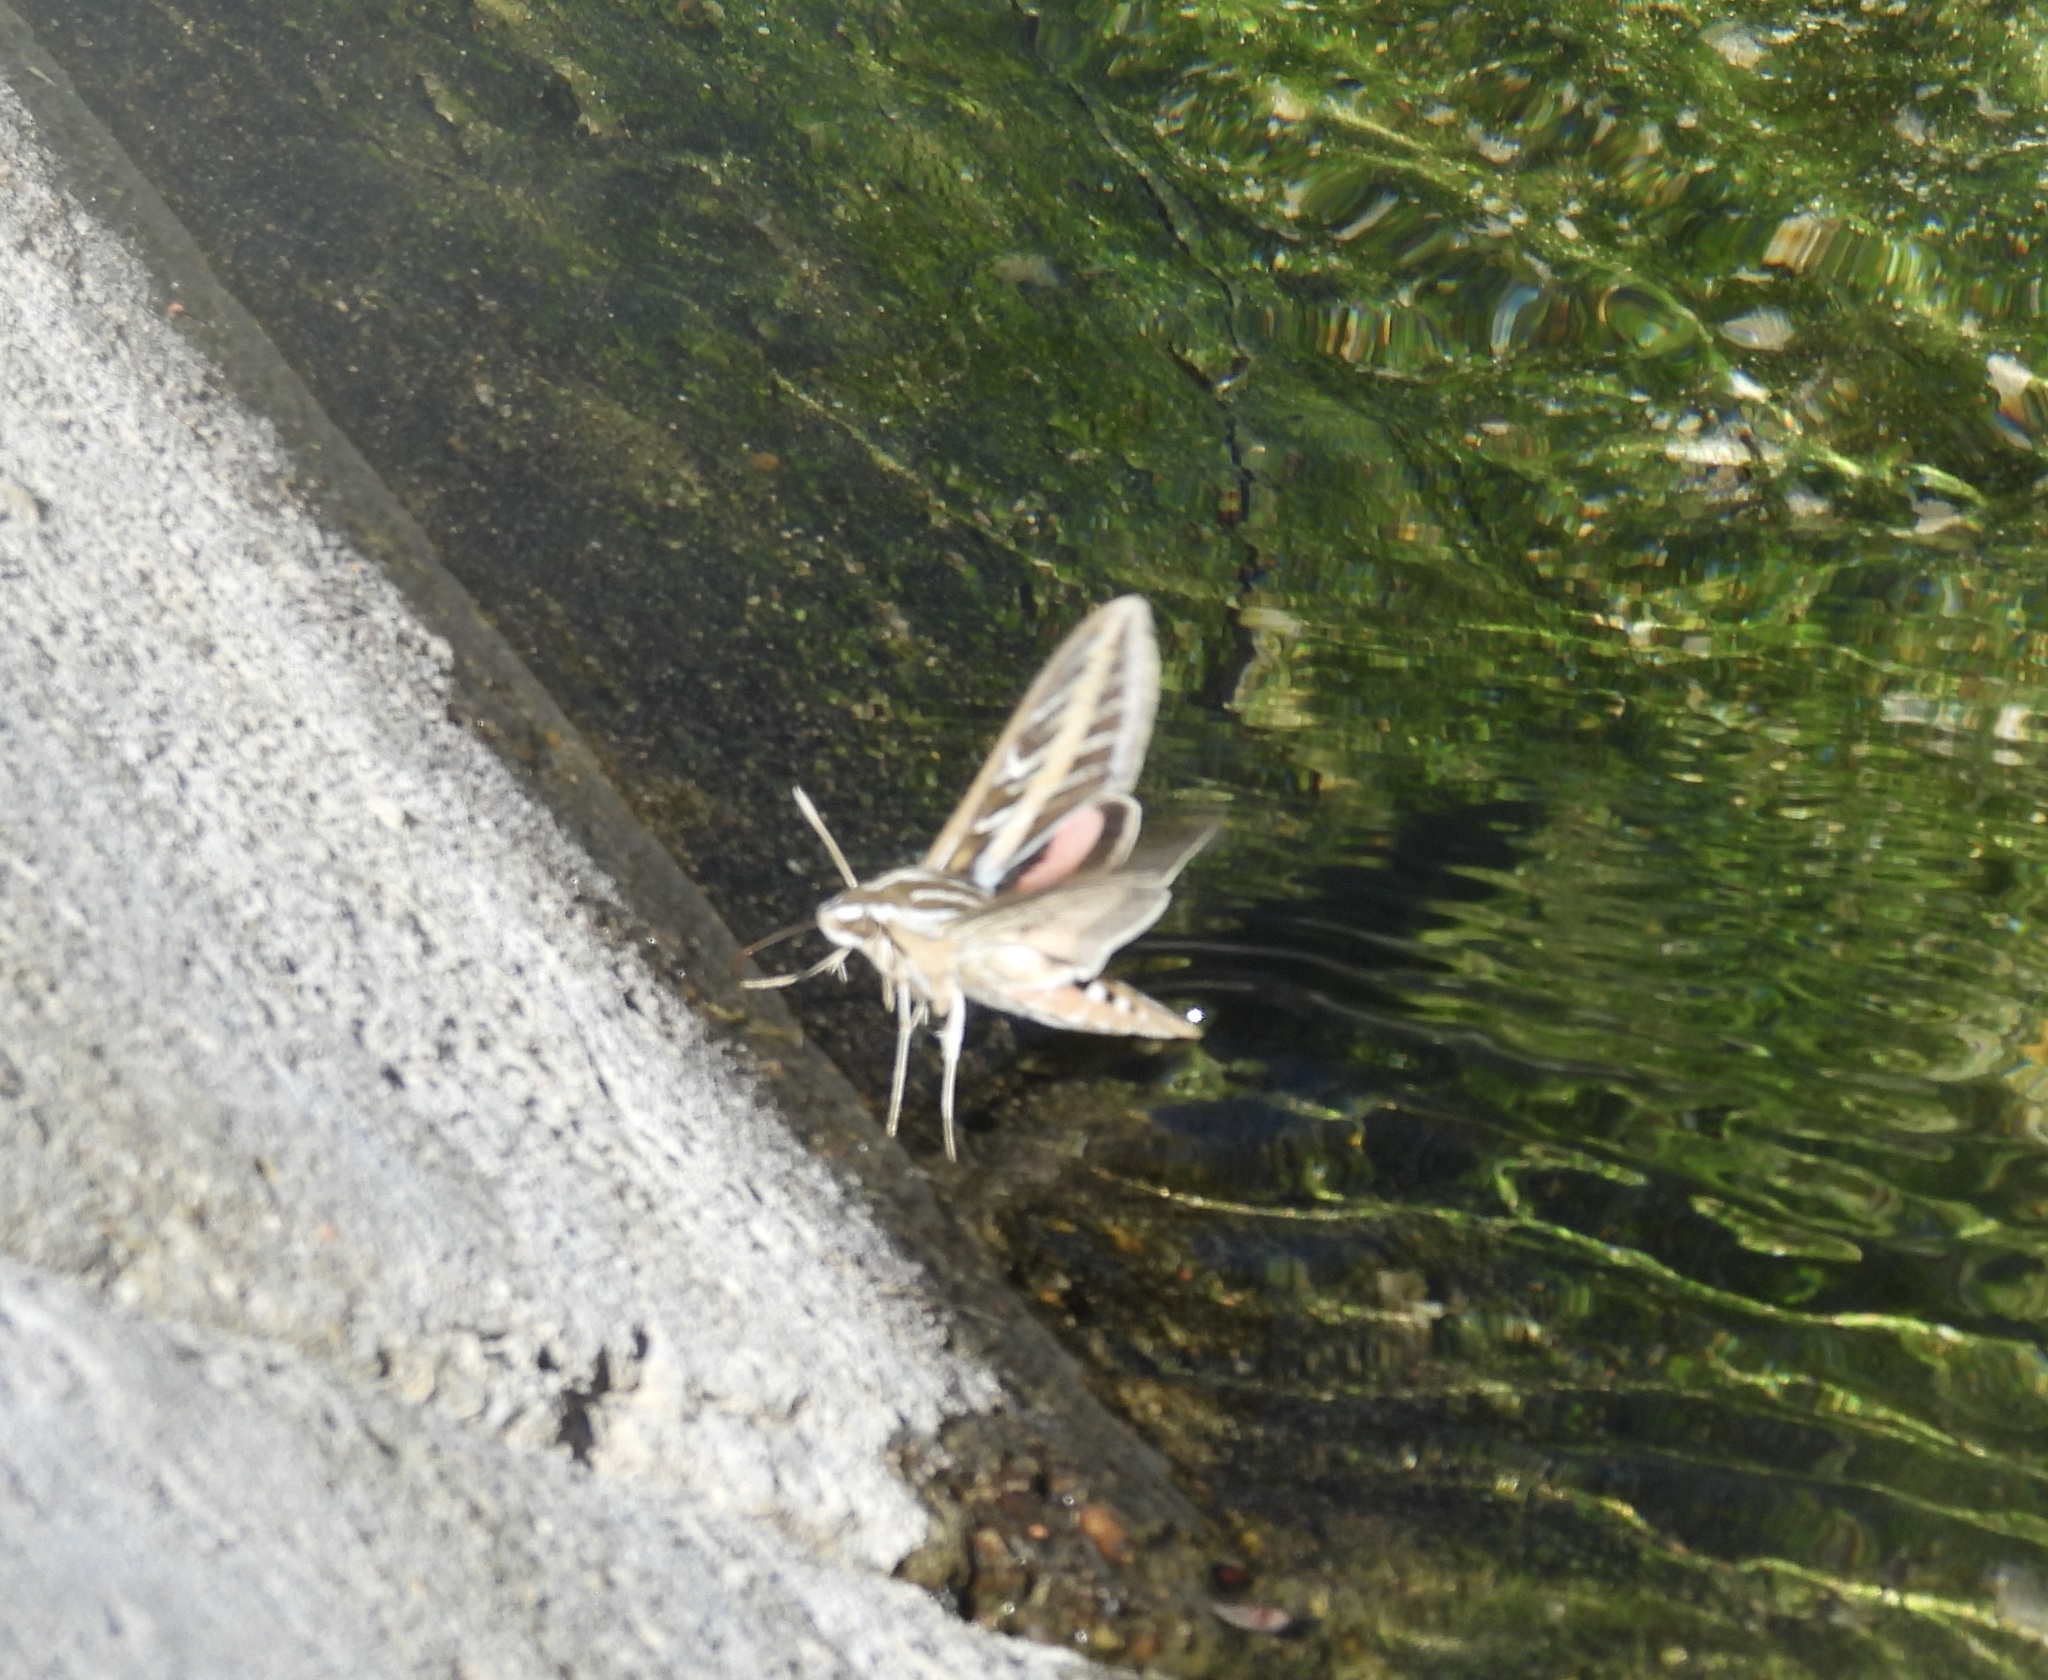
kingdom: Animalia
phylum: Arthropoda
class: Insecta
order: Lepidoptera
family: Sphingidae
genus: Hyles
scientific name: Hyles lineata
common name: White-lined sphinx
